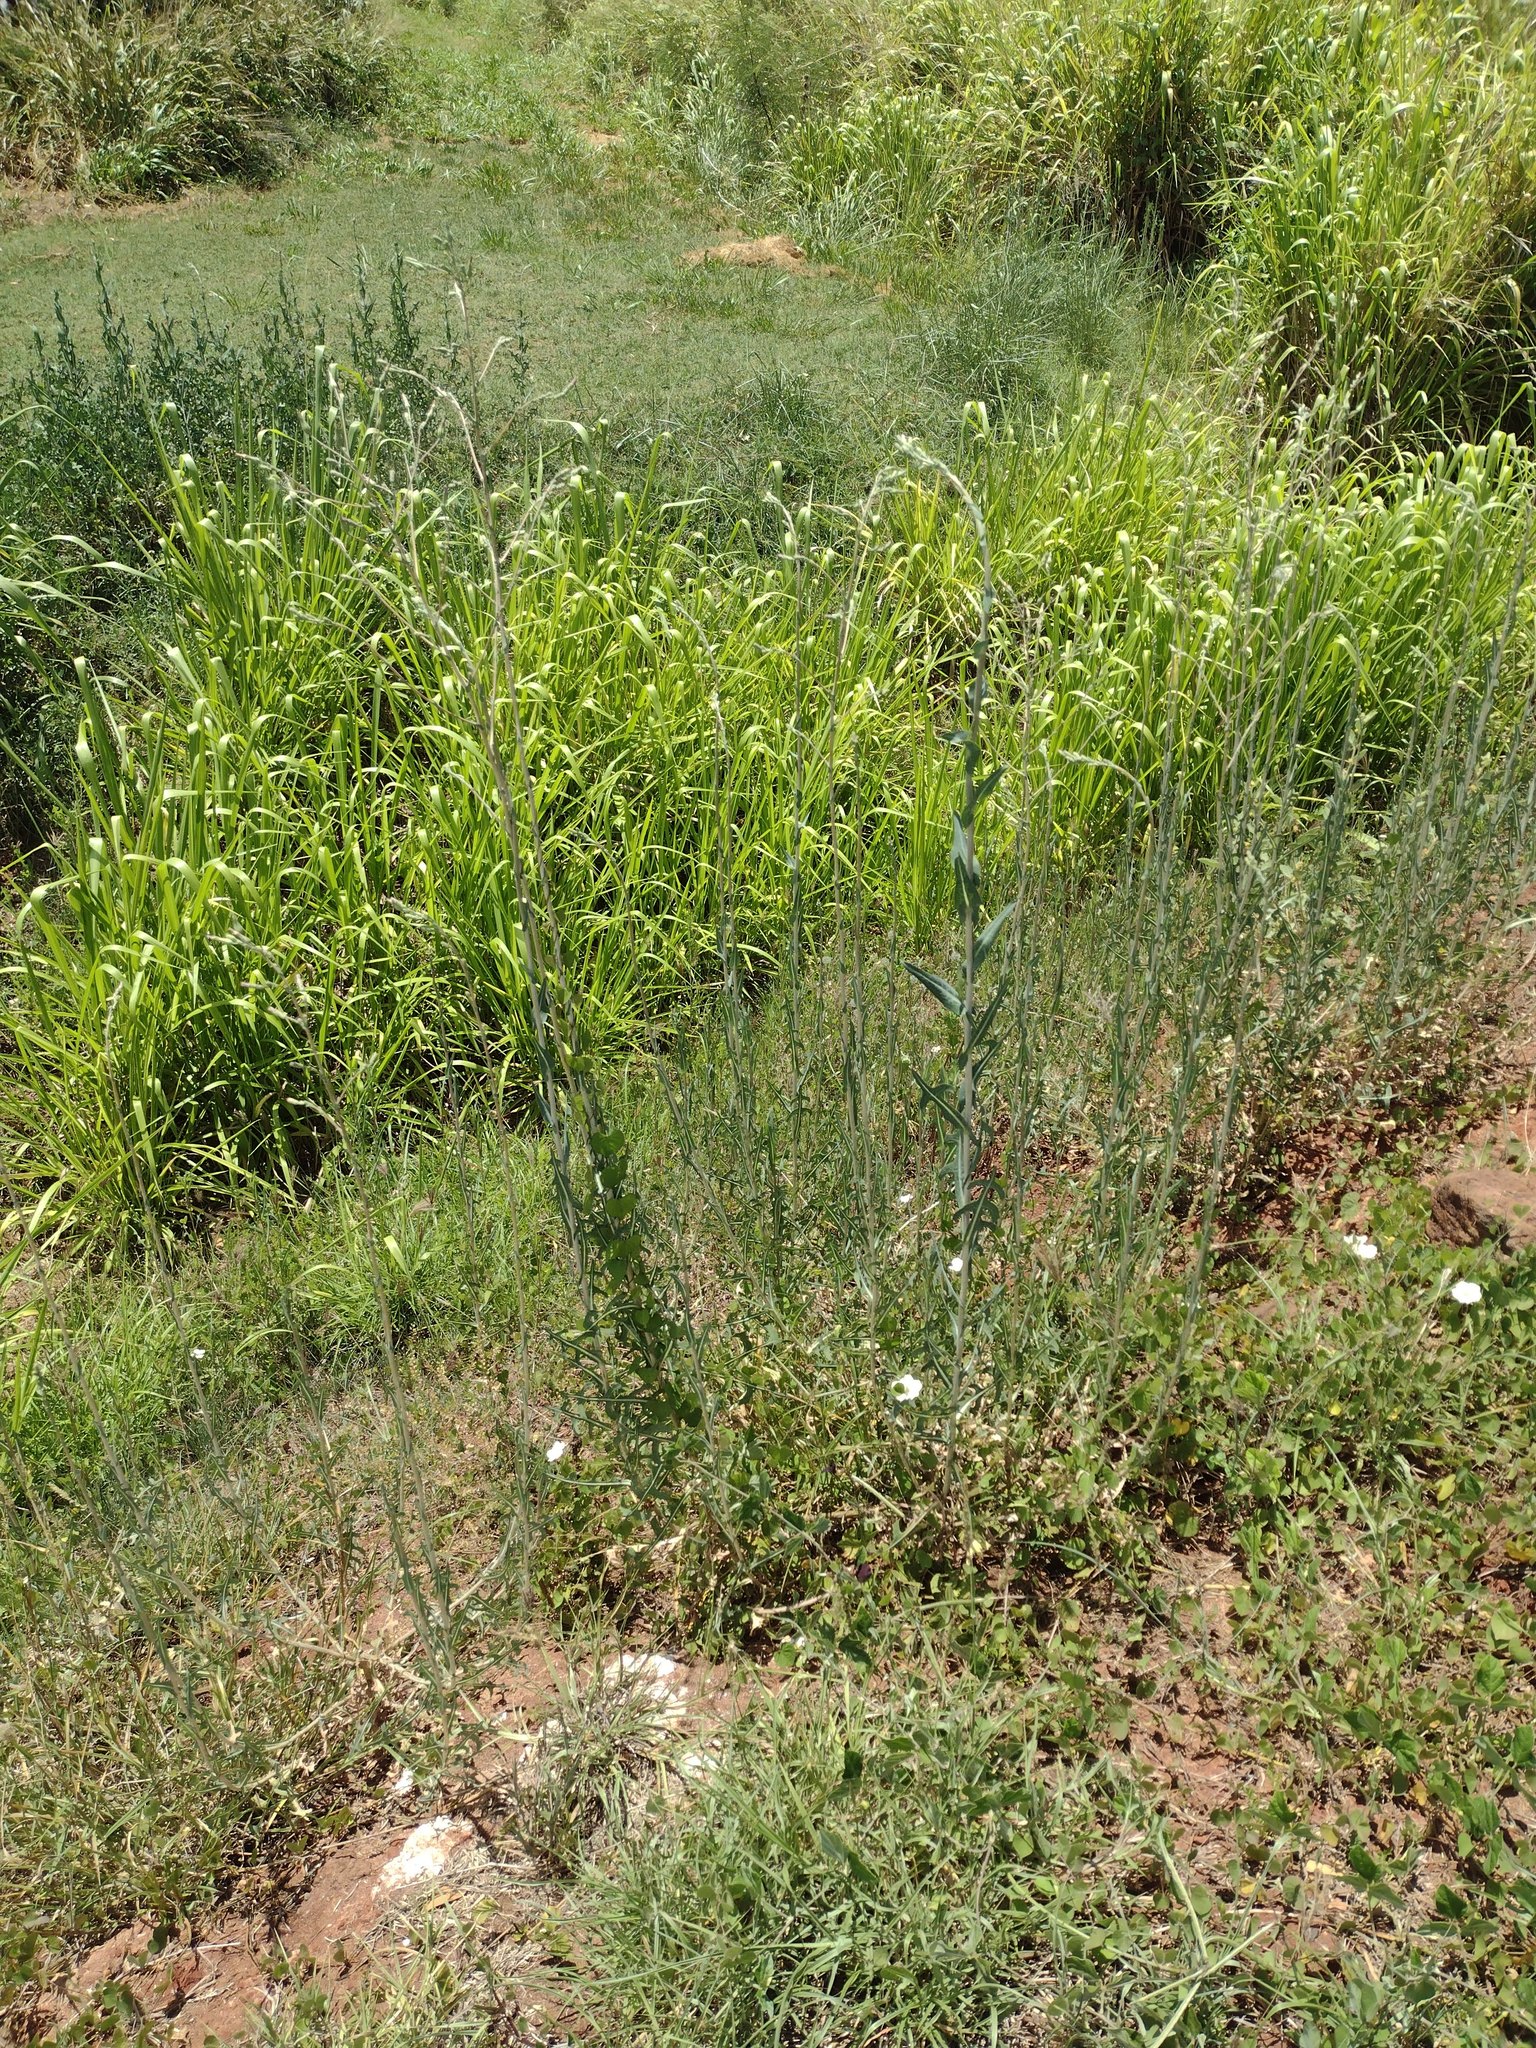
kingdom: Plantae
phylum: Tracheophyta
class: Magnoliopsida
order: Asterales
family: Asteraceae
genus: Lactuca
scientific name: Lactuca serriola
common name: Prickly lettuce
